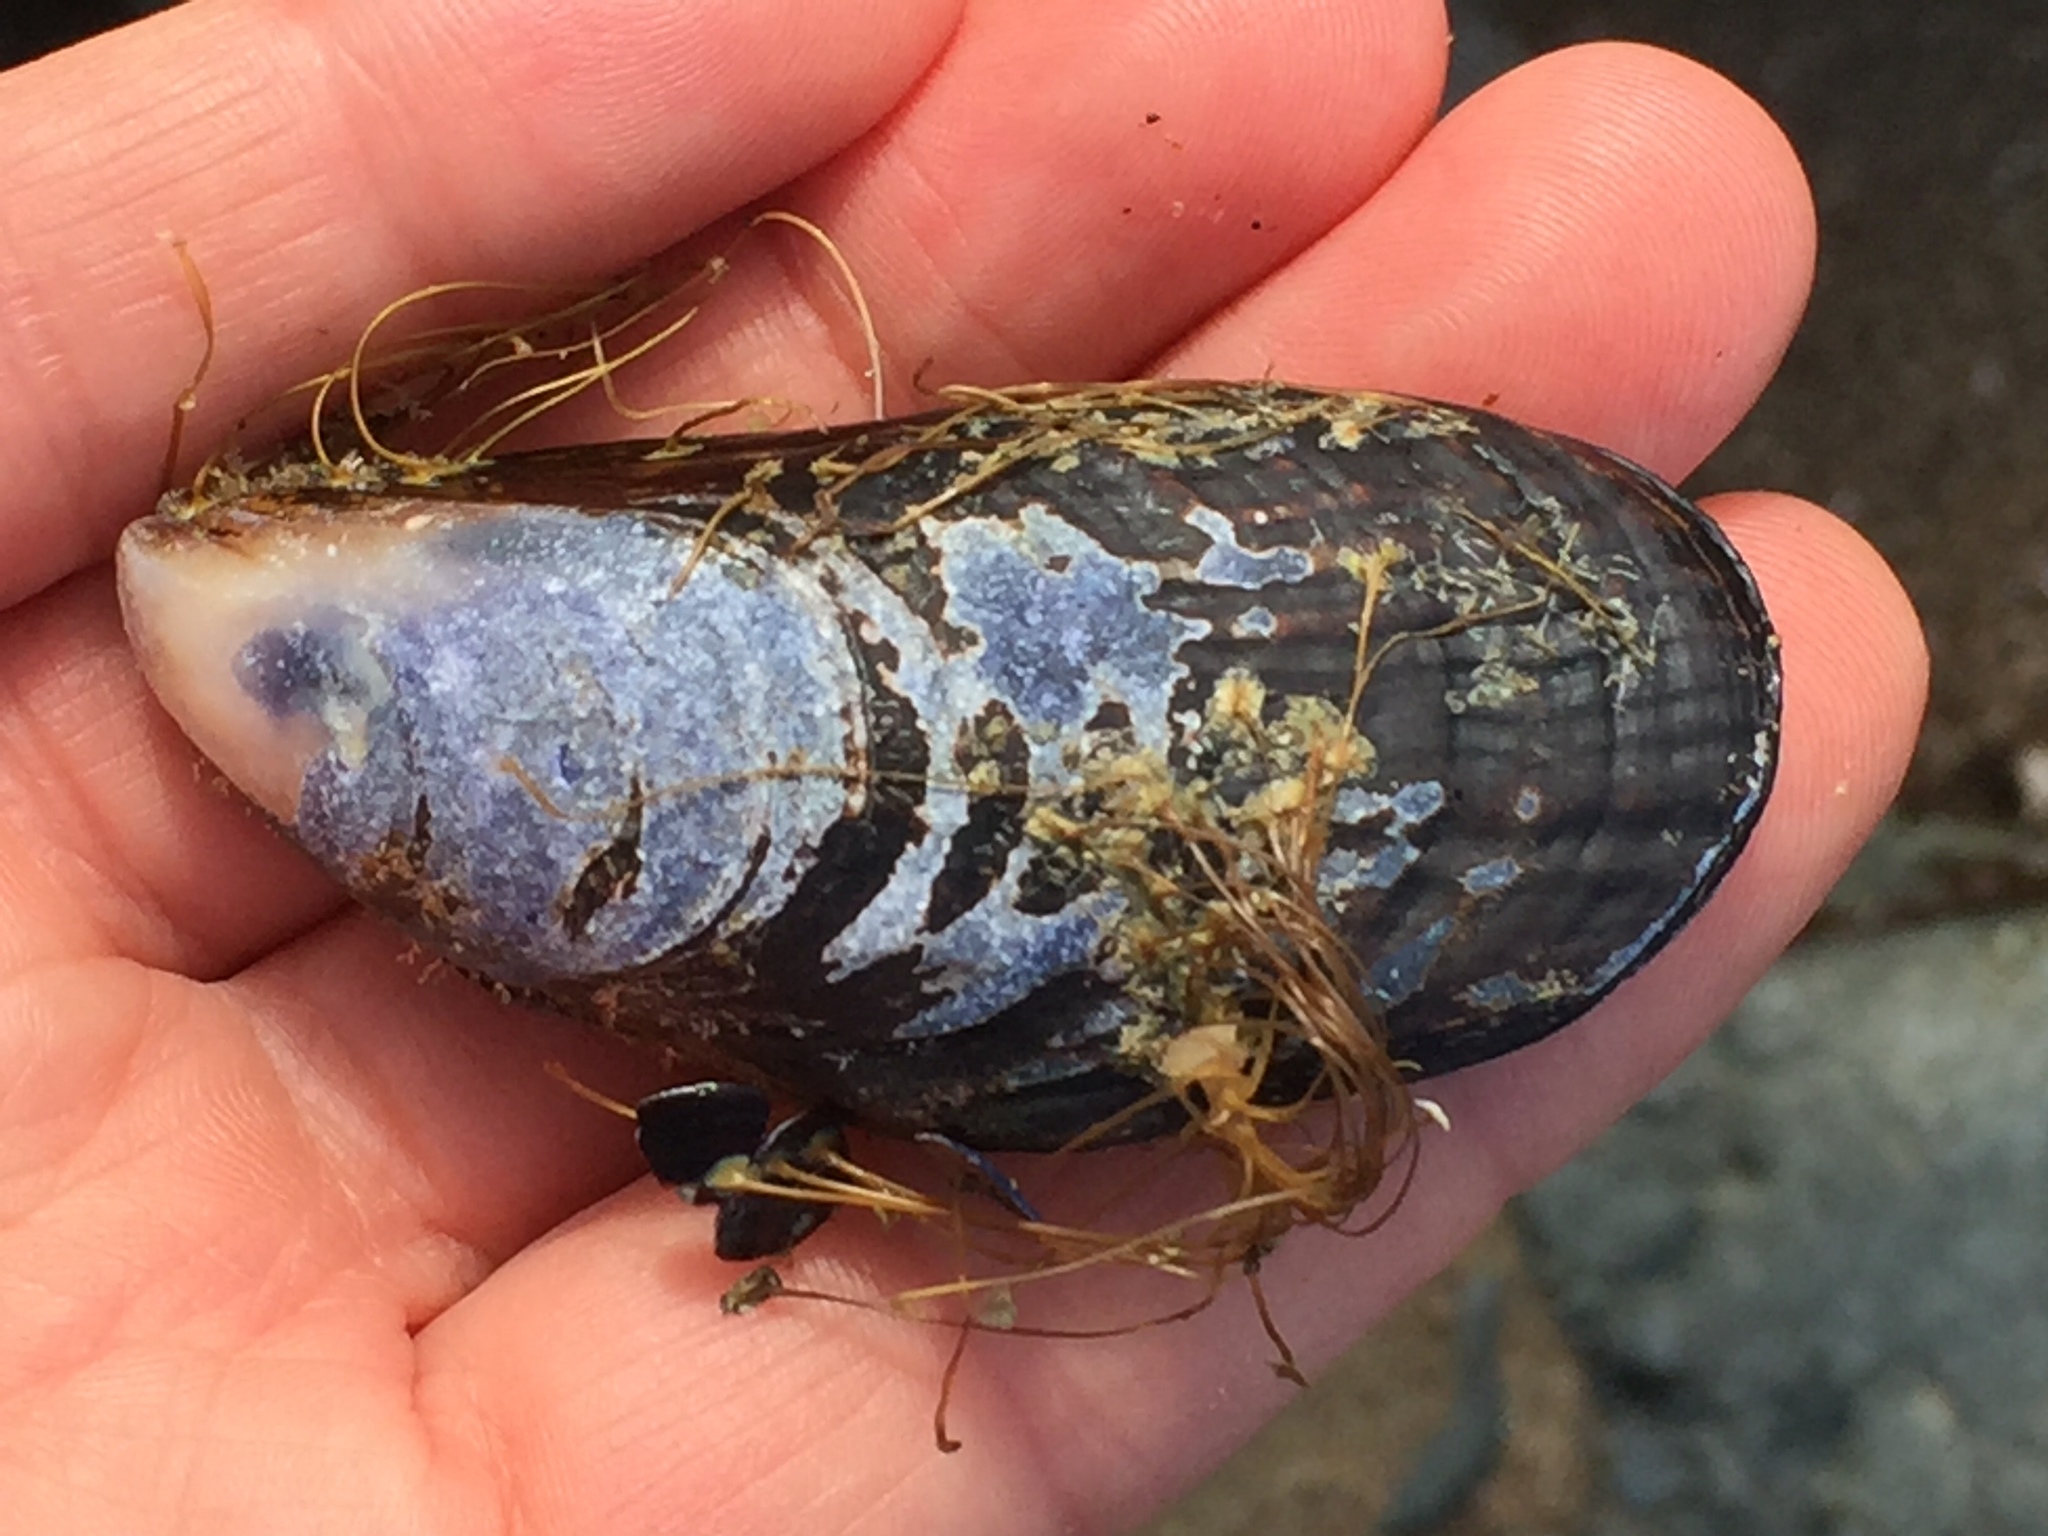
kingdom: Animalia
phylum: Mollusca
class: Bivalvia
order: Mytilida
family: Mytilidae
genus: Mytilus
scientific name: Mytilus californianus
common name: California mussel
